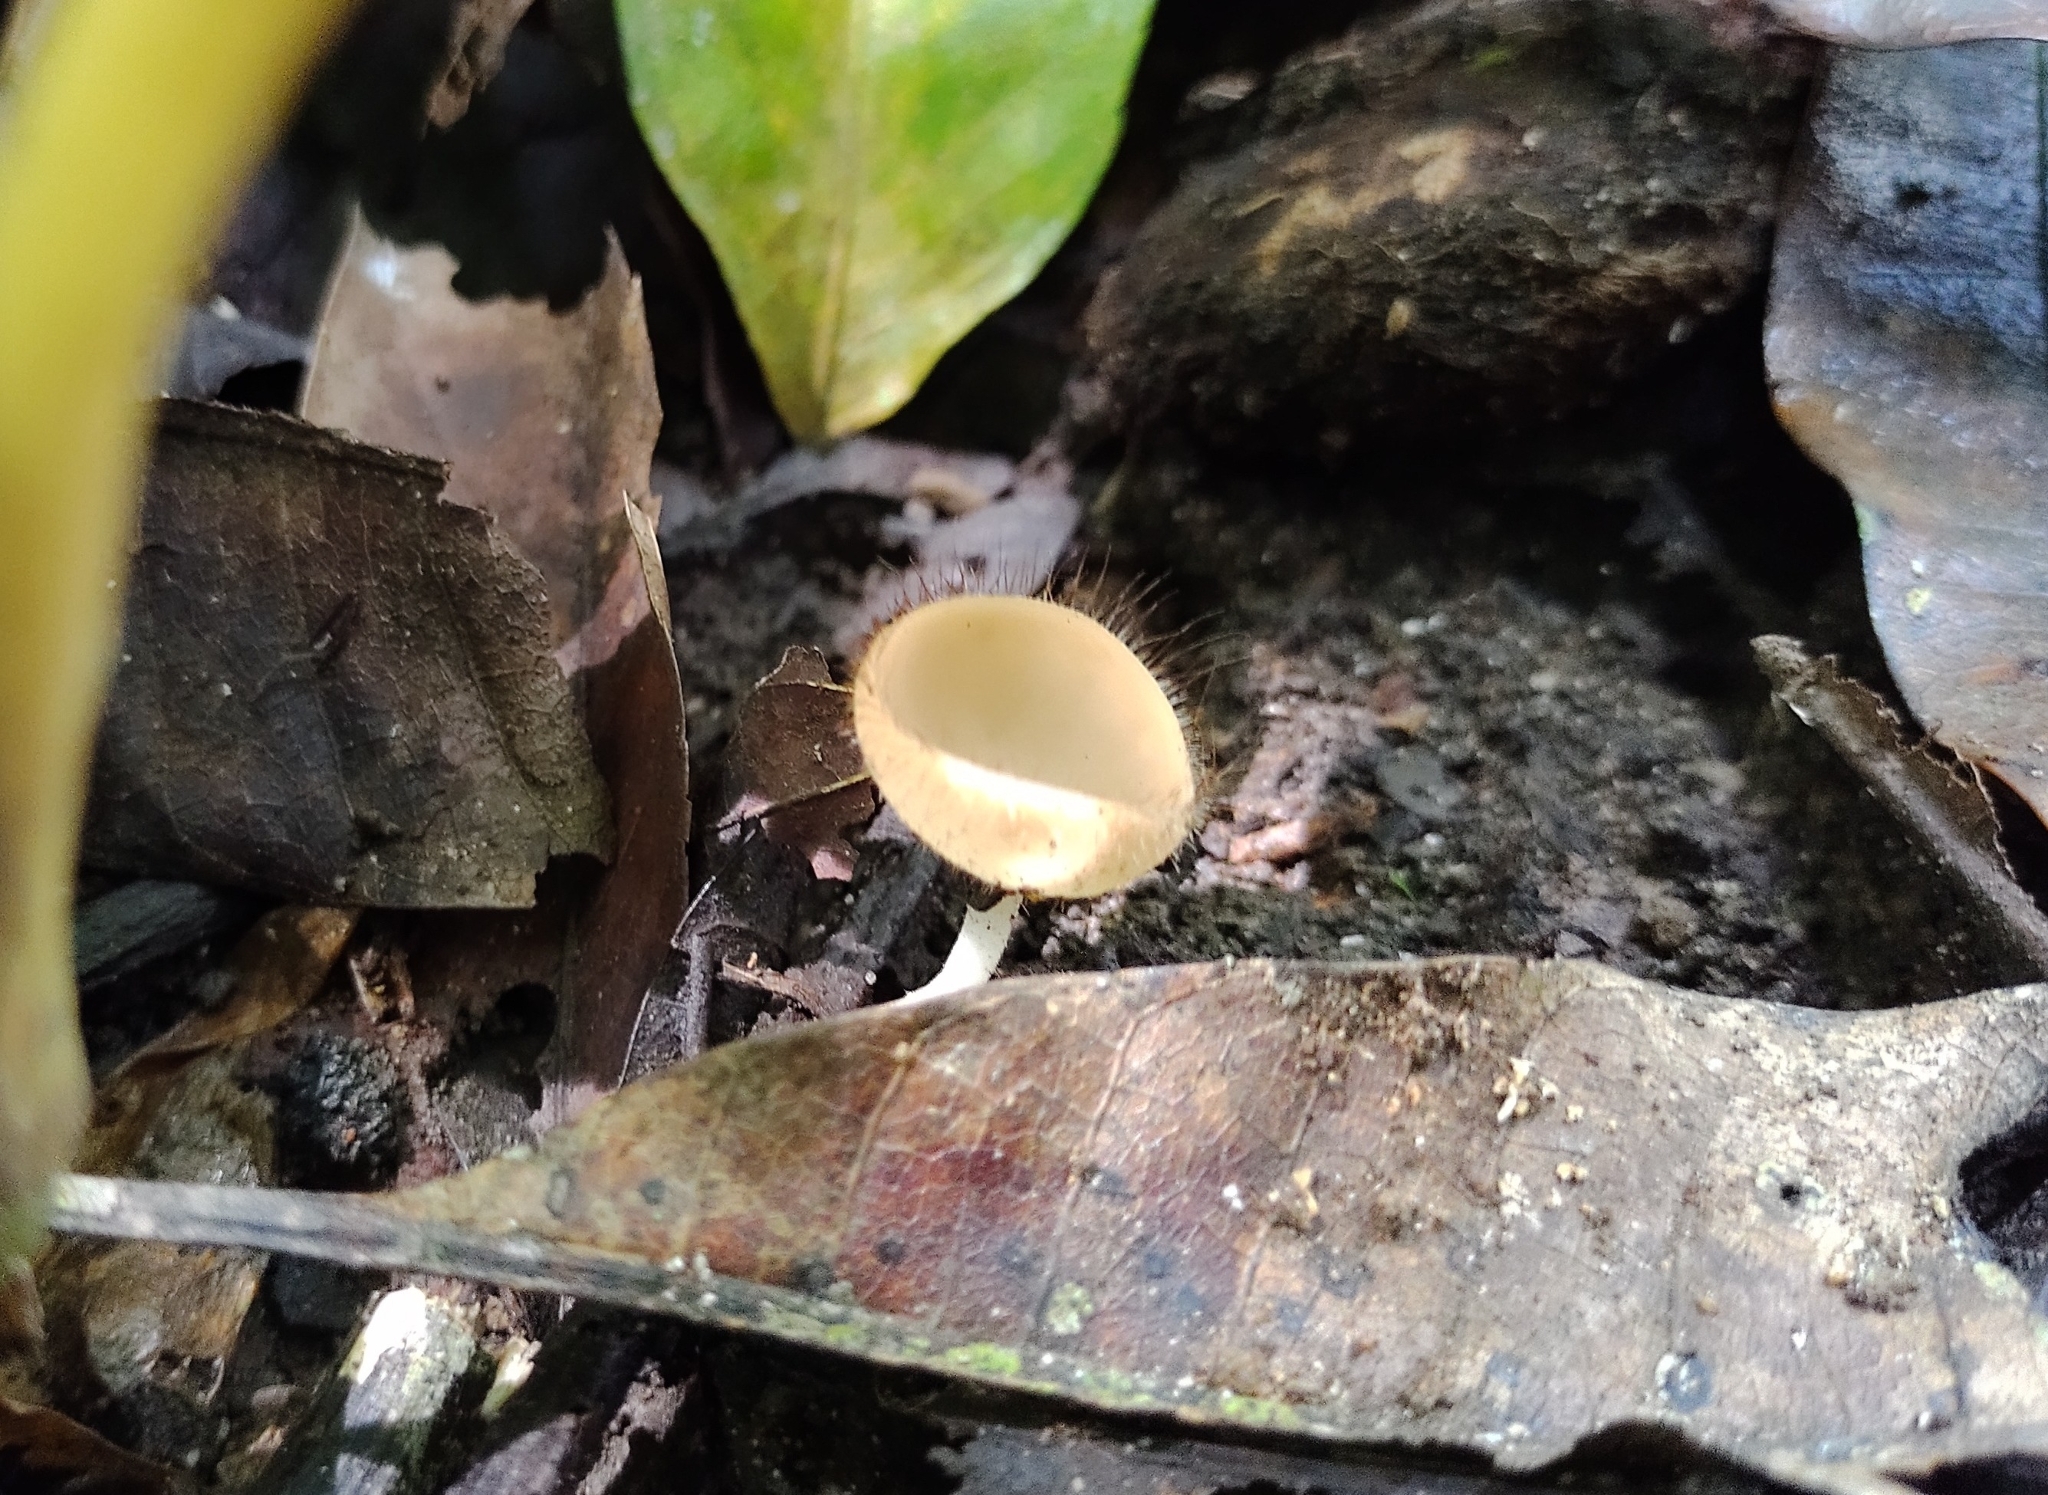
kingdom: Fungi
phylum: Ascomycota
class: Pezizomycetes
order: Pezizales
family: Sarcoscyphaceae
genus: Cookeina
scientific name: Cookeina tricholoma
